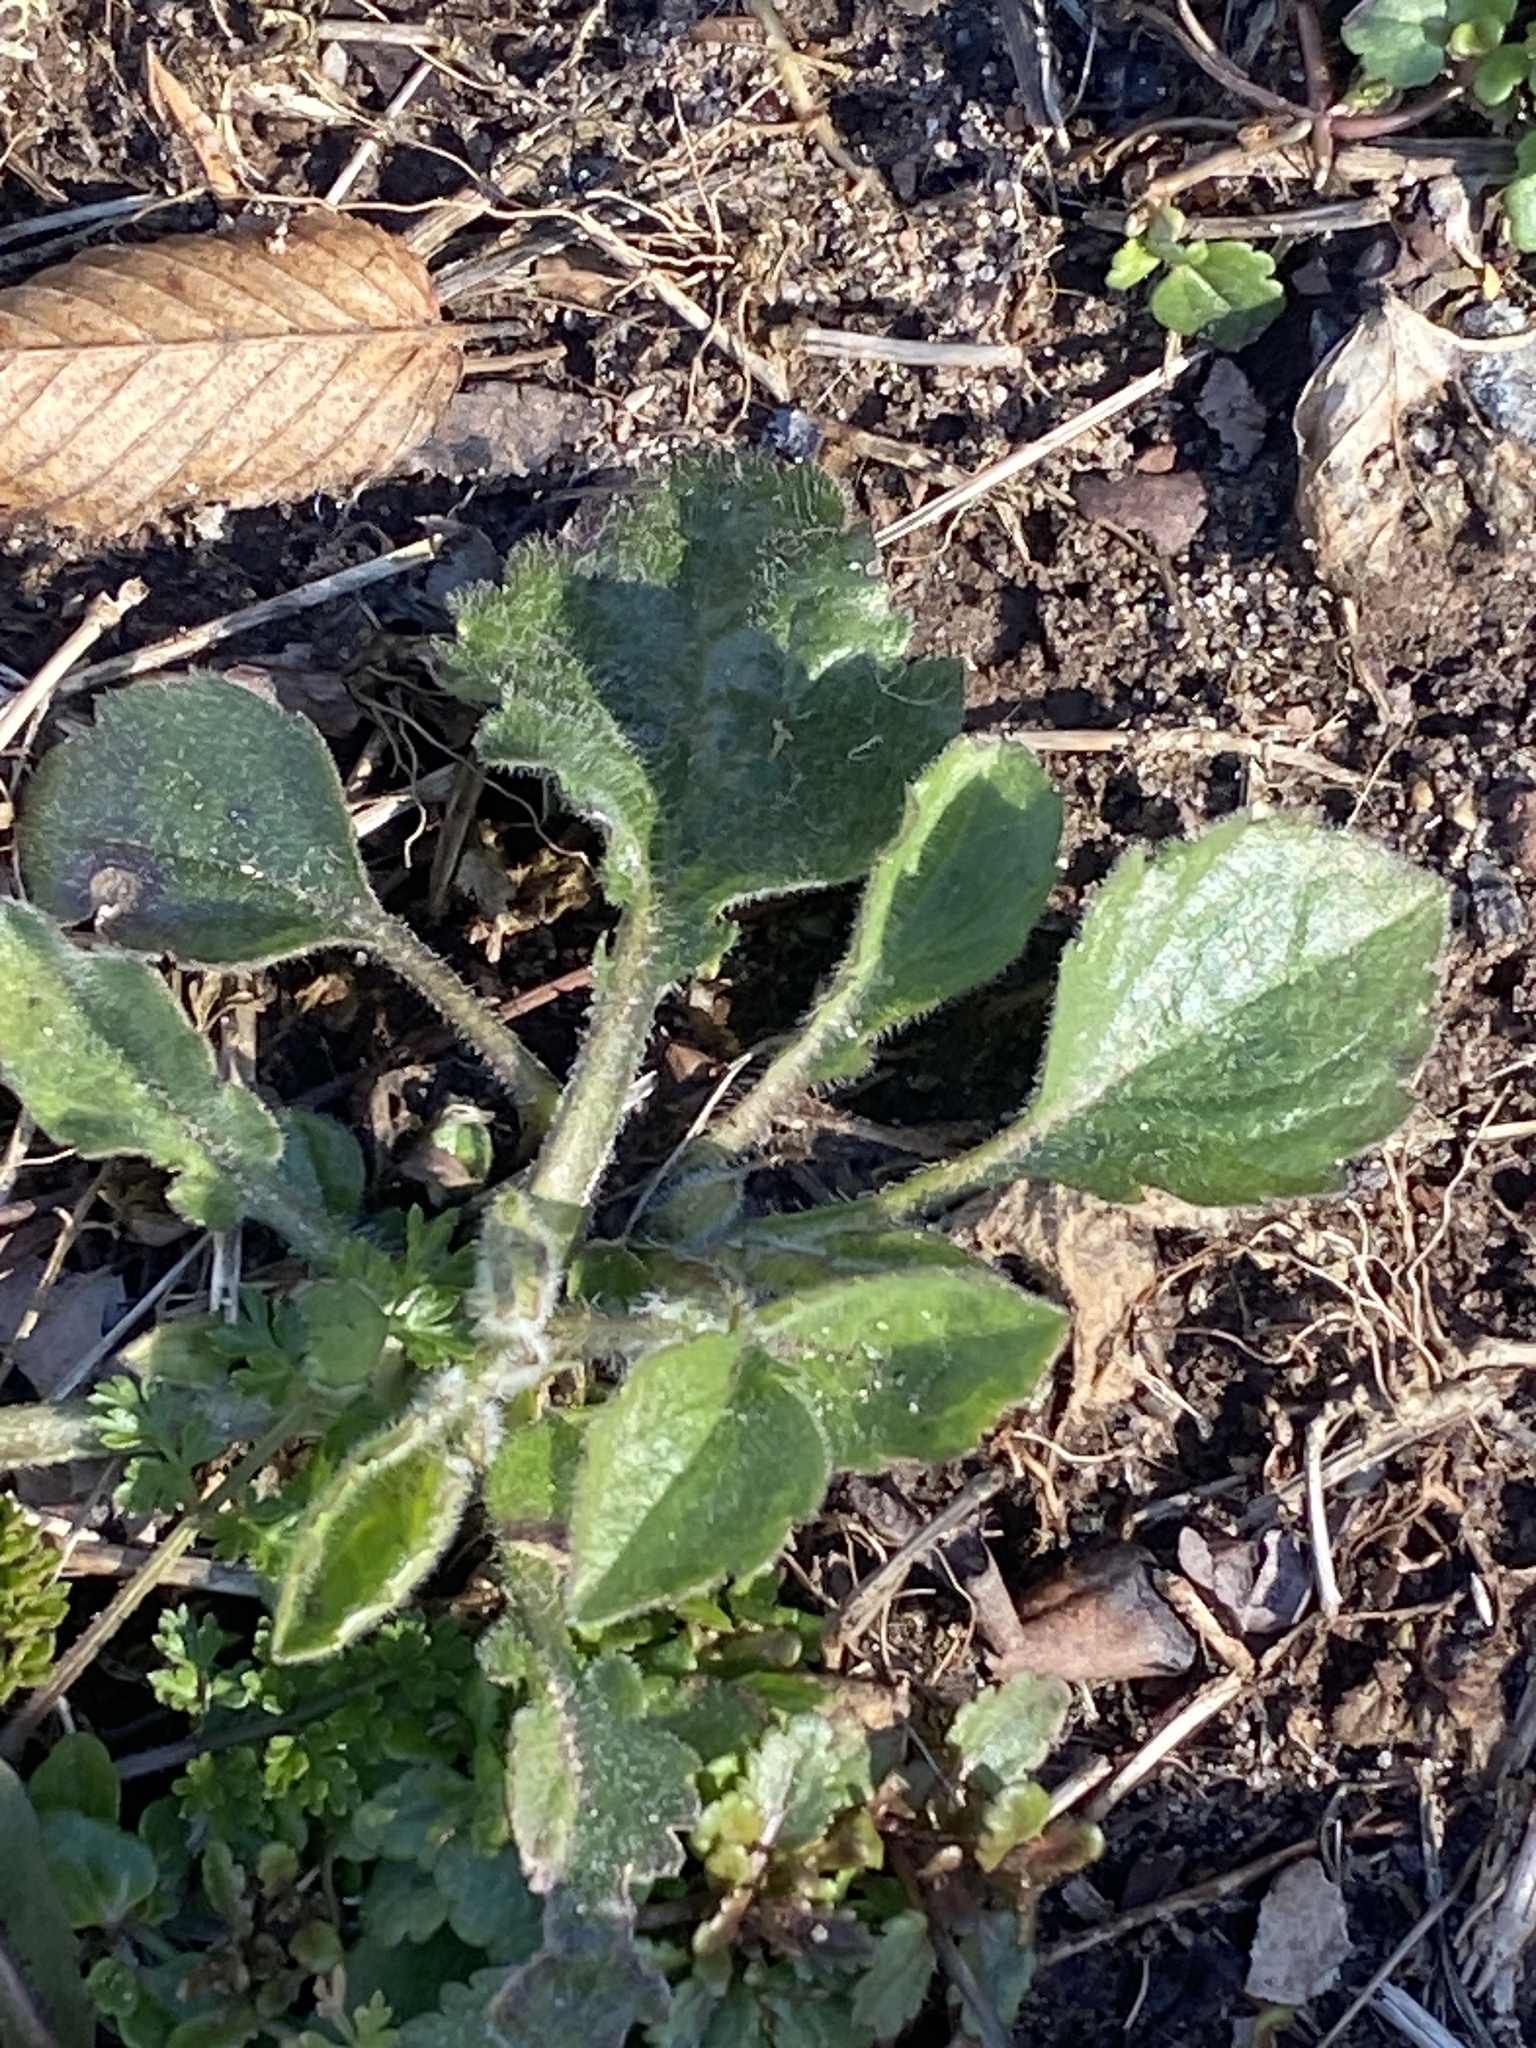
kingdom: Plantae
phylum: Tracheophyta
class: Magnoliopsida
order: Asterales
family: Asteraceae
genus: Erigeron
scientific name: Erigeron annuus
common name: Tall fleabane
